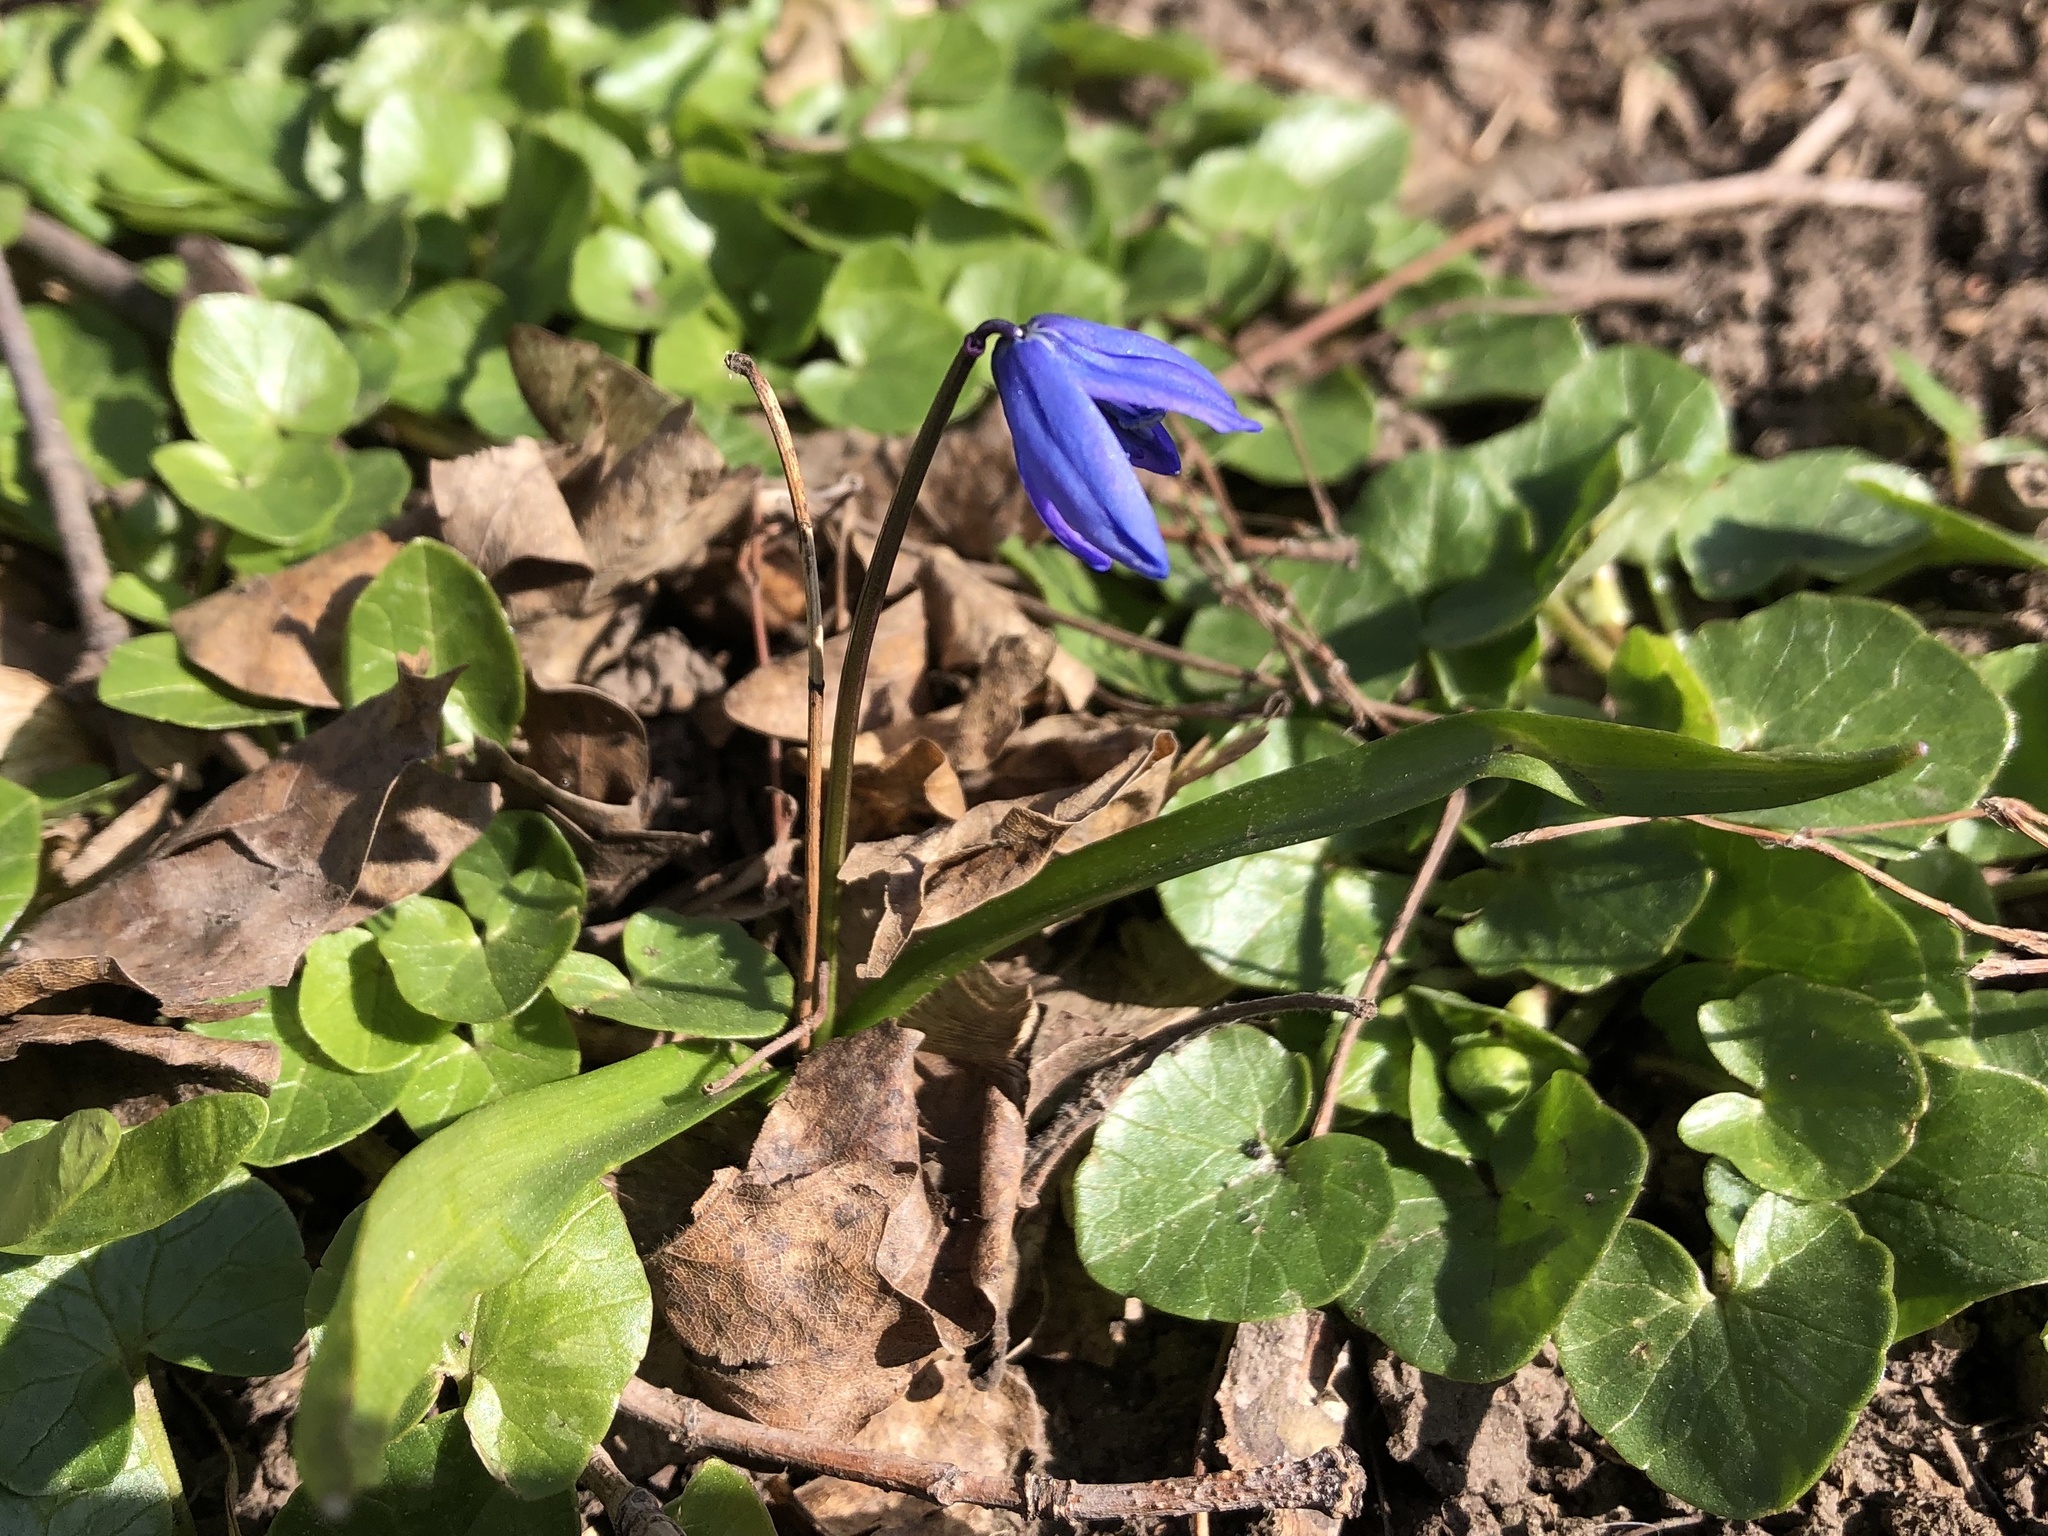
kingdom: Plantae
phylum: Tracheophyta
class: Liliopsida
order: Asparagales
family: Asparagaceae
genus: Scilla
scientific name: Scilla siberica
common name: Siberian squill
